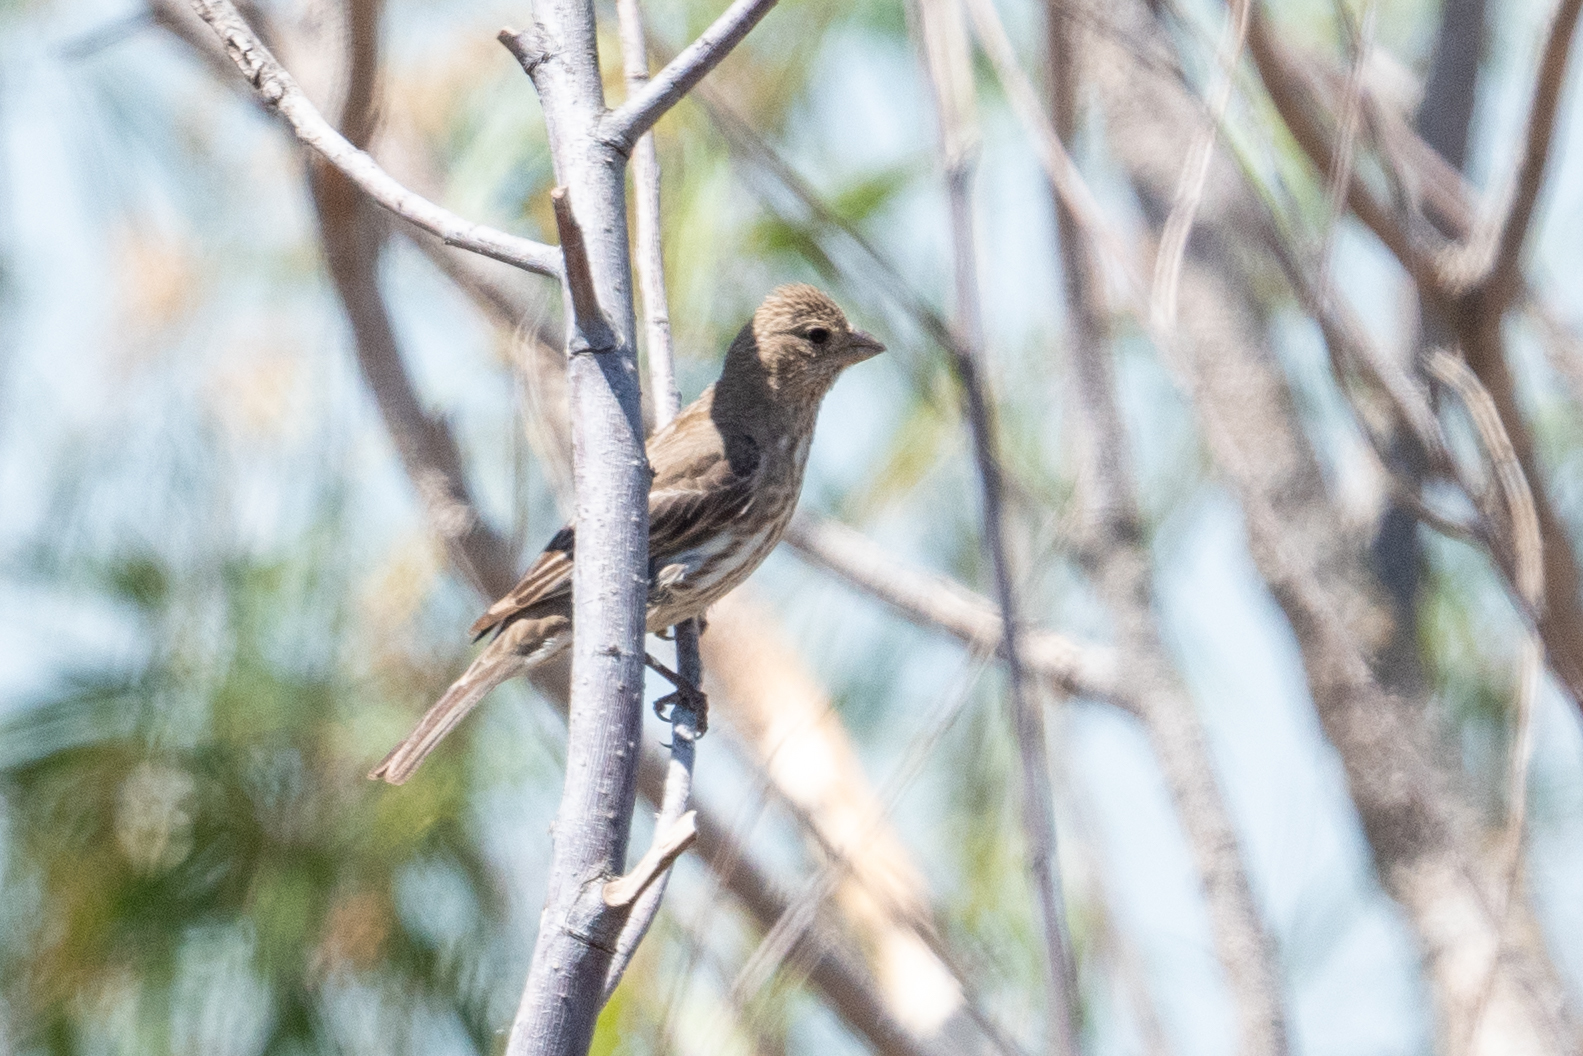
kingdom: Animalia
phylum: Chordata
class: Aves
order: Passeriformes
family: Fringillidae
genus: Haemorhous
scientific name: Haemorhous mexicanus
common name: House finch
